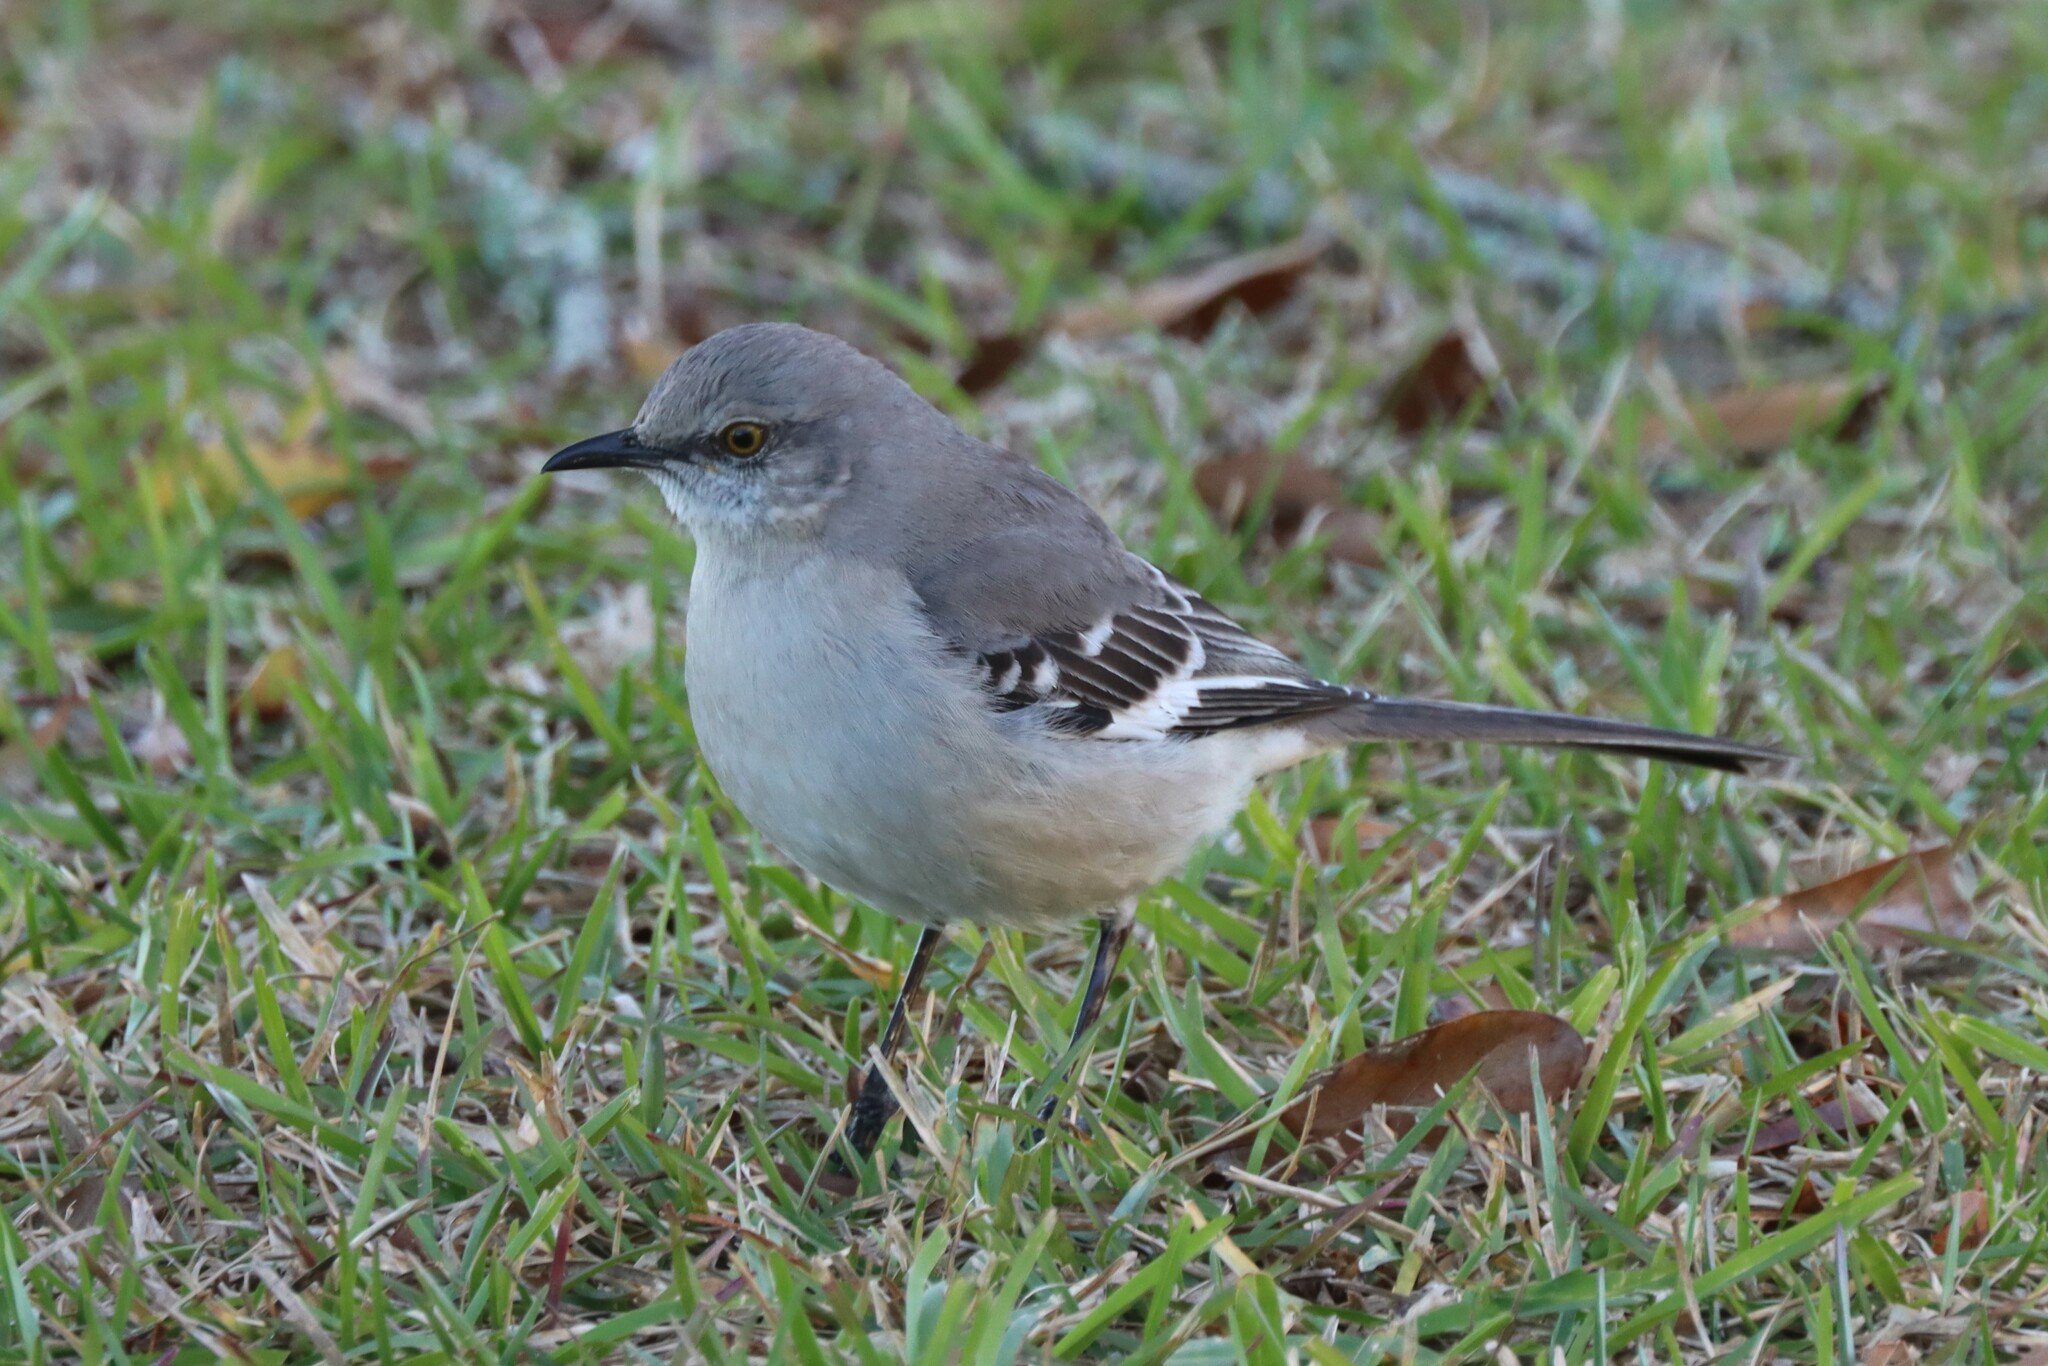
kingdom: Animalia
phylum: Chordata
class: Aves
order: Passeriformes
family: Mimidae
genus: Mimus
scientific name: Mimus polyglottos
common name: Northern mockingbird
